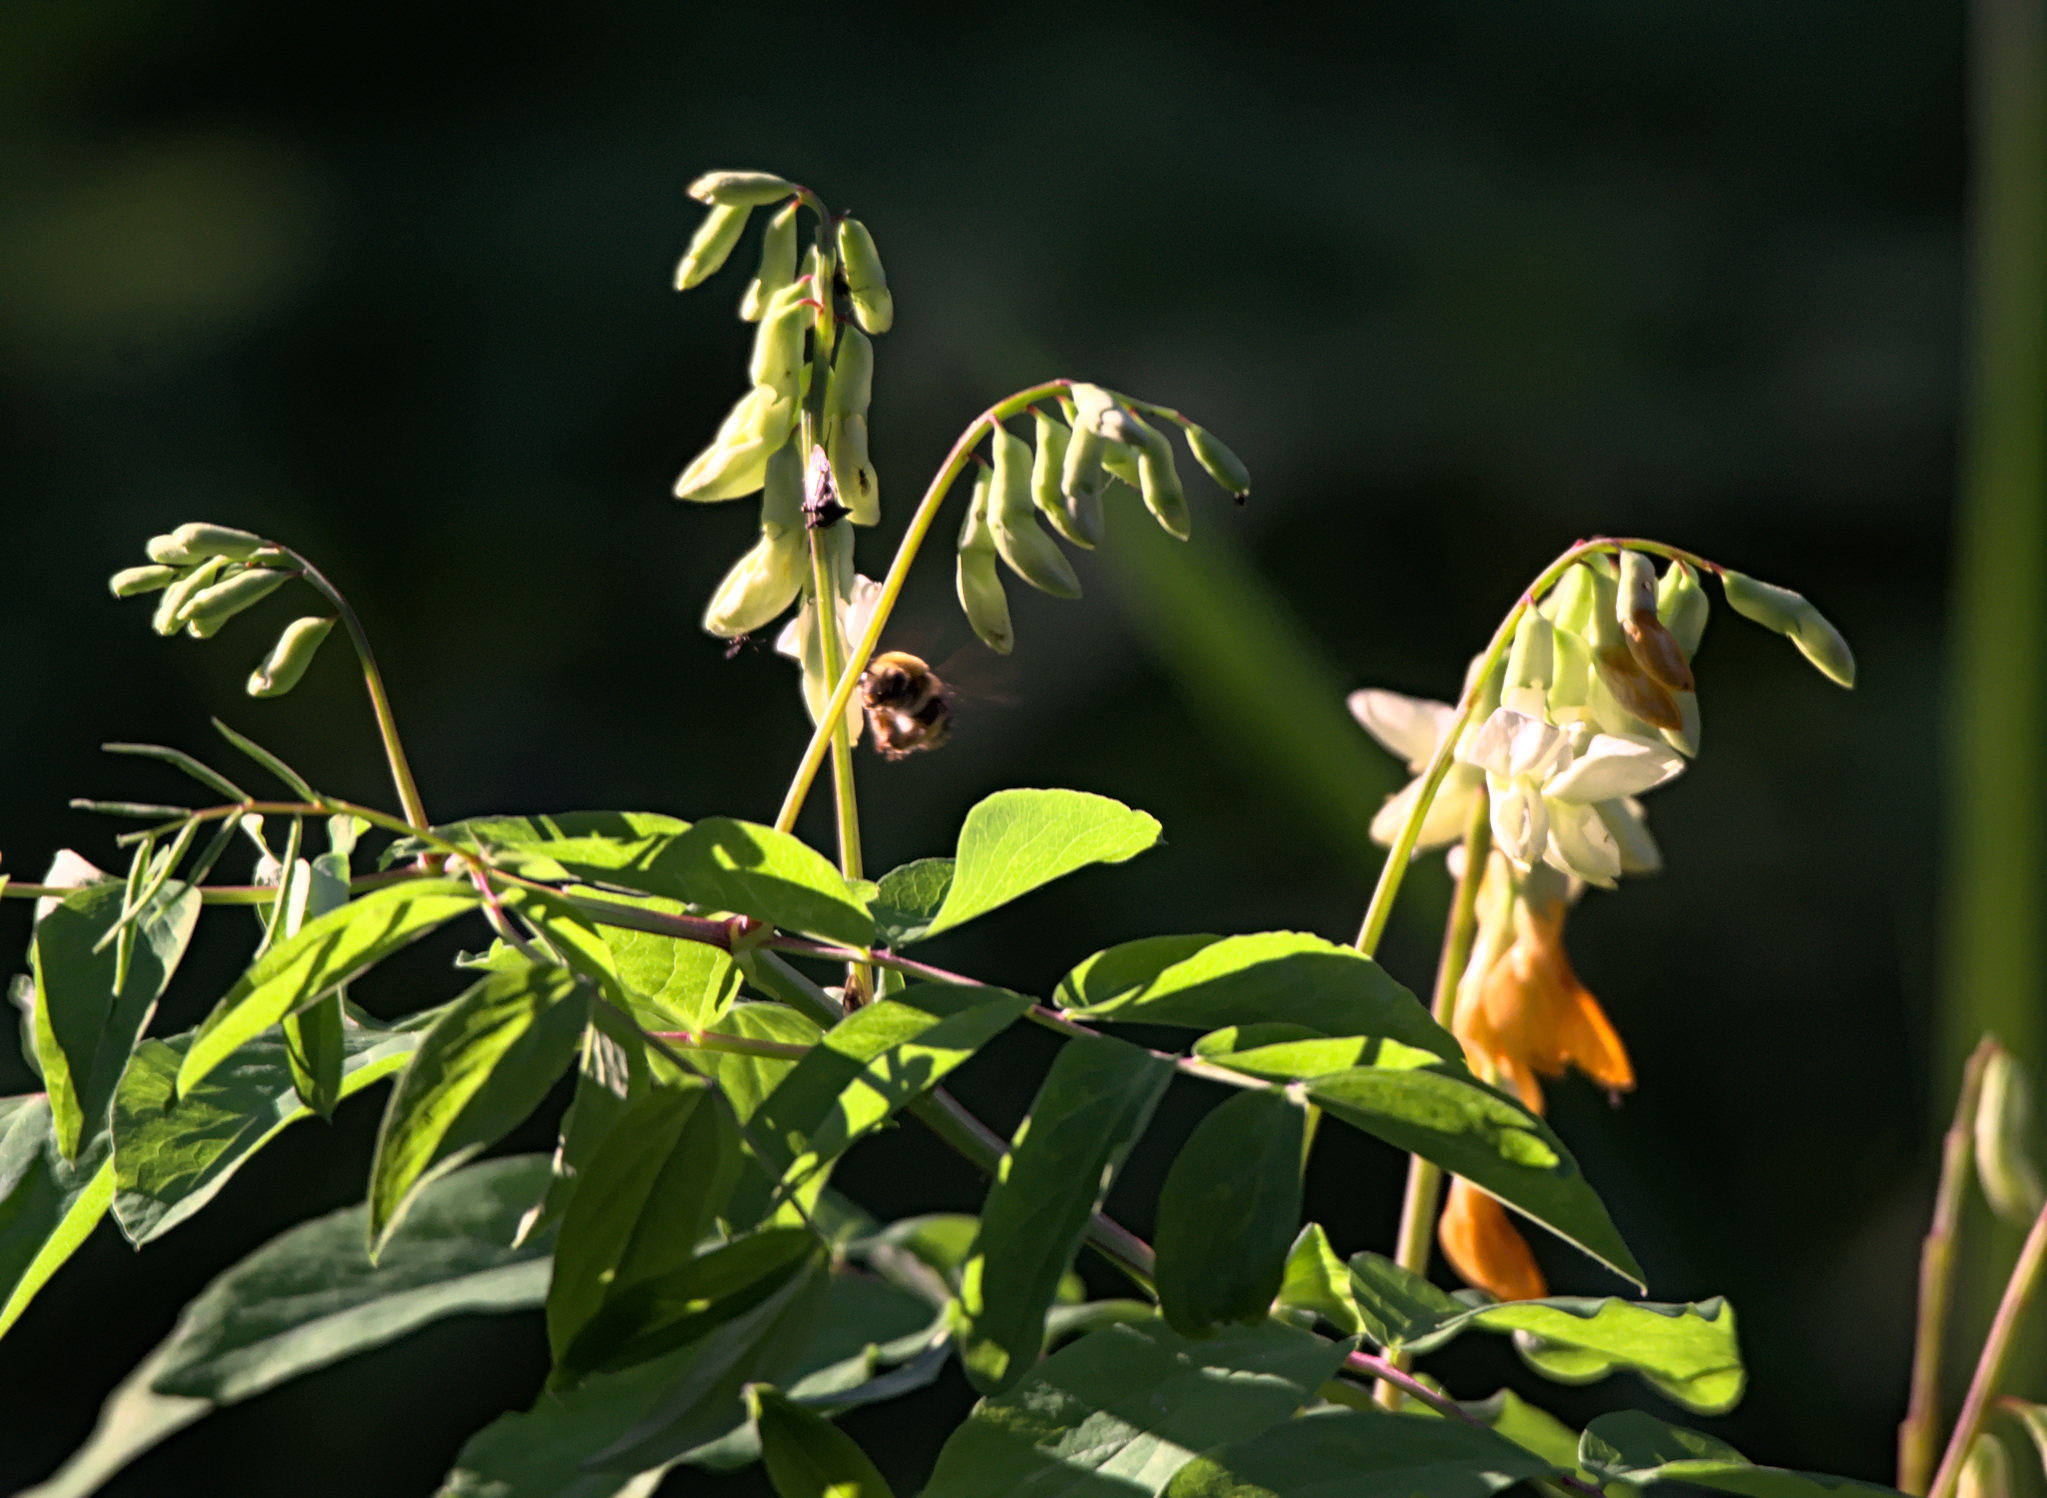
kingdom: Plantae
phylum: Tracheophyta
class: Magnoliopsida
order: Fabales
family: Fabaceae
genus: Lathyrus
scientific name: Lathyrus gmelinii
